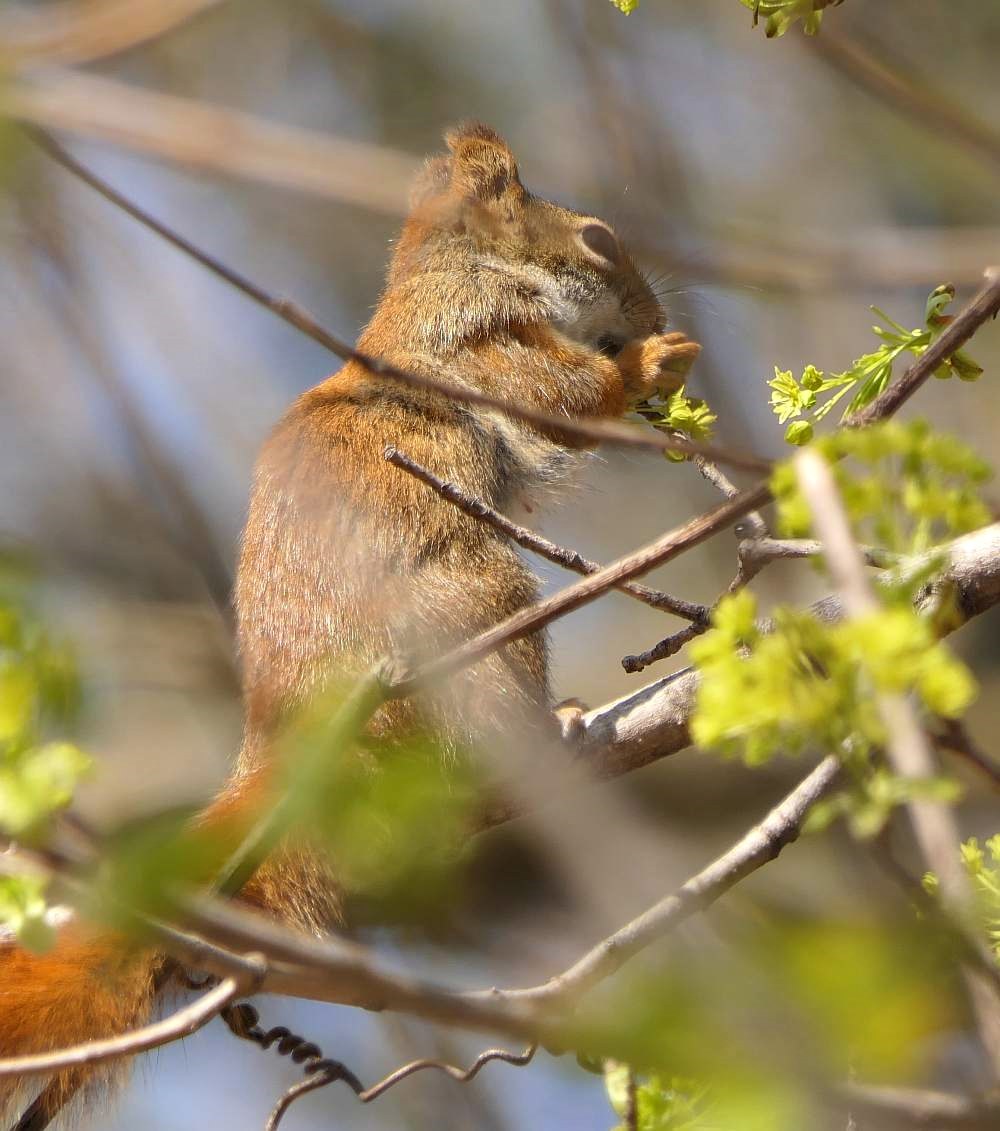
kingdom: Animalia
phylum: Chordata
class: Mammalia
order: Rodentia
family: Sciuridae
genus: Tamiasciurus
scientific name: Tamiasciurus hudsonicus
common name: Red squirrel
